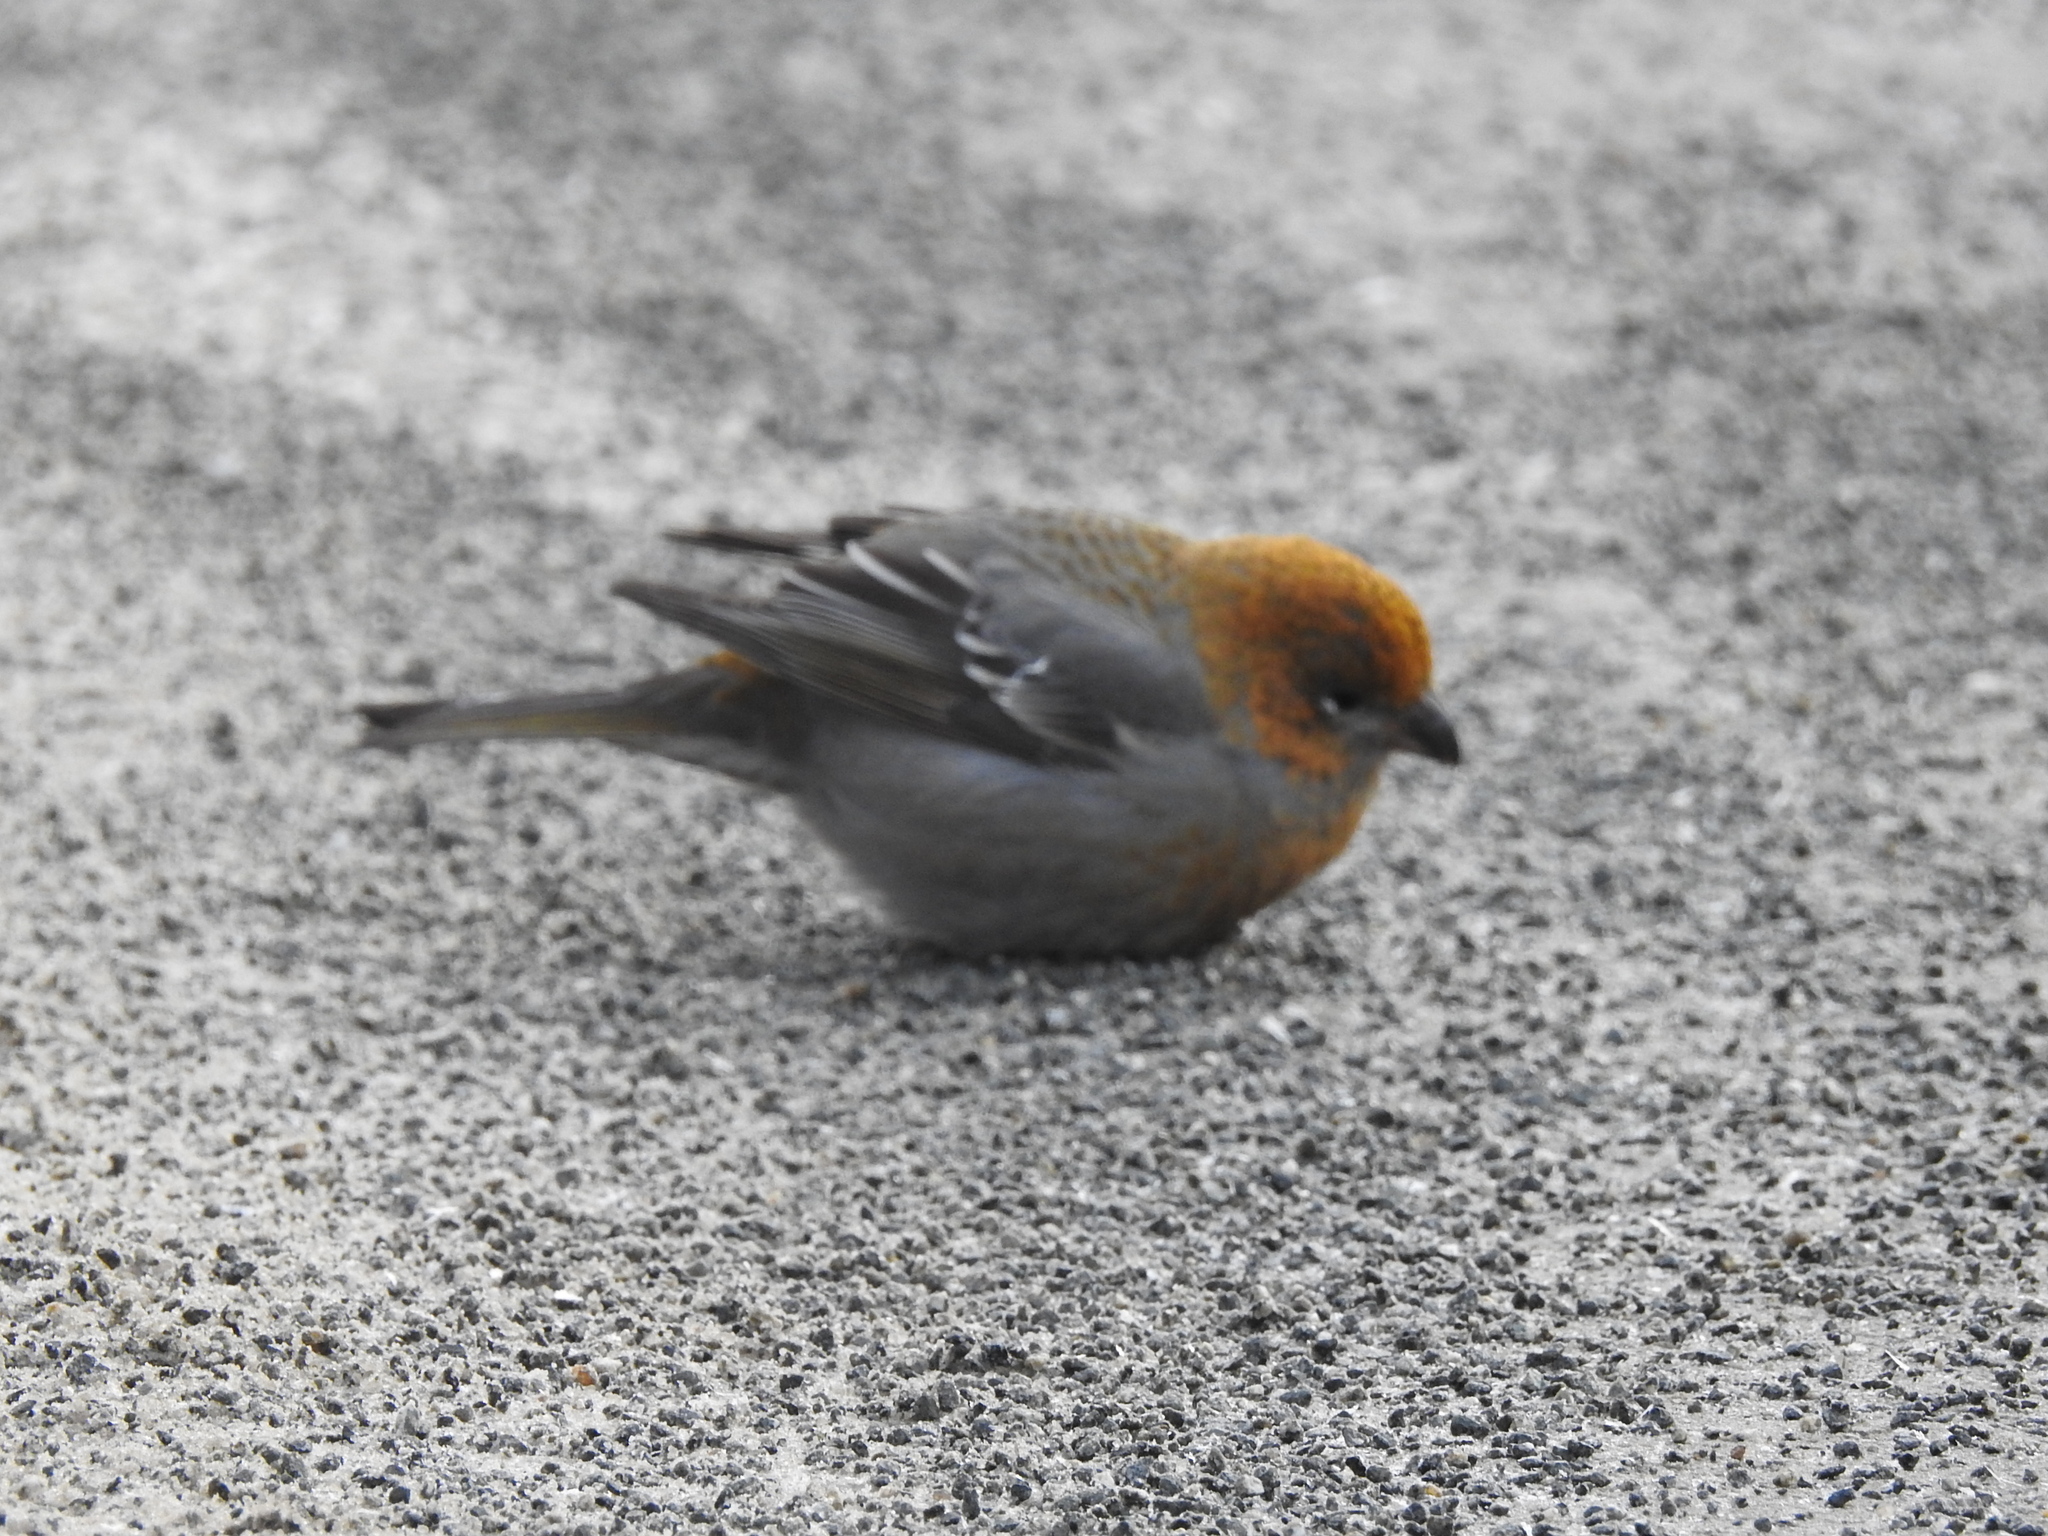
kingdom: Animalia
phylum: Chordata
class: Aves
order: Passeriformes
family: Fringillidae
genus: Pinicola
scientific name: Pinicola enucleator
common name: Pine grosbeak
